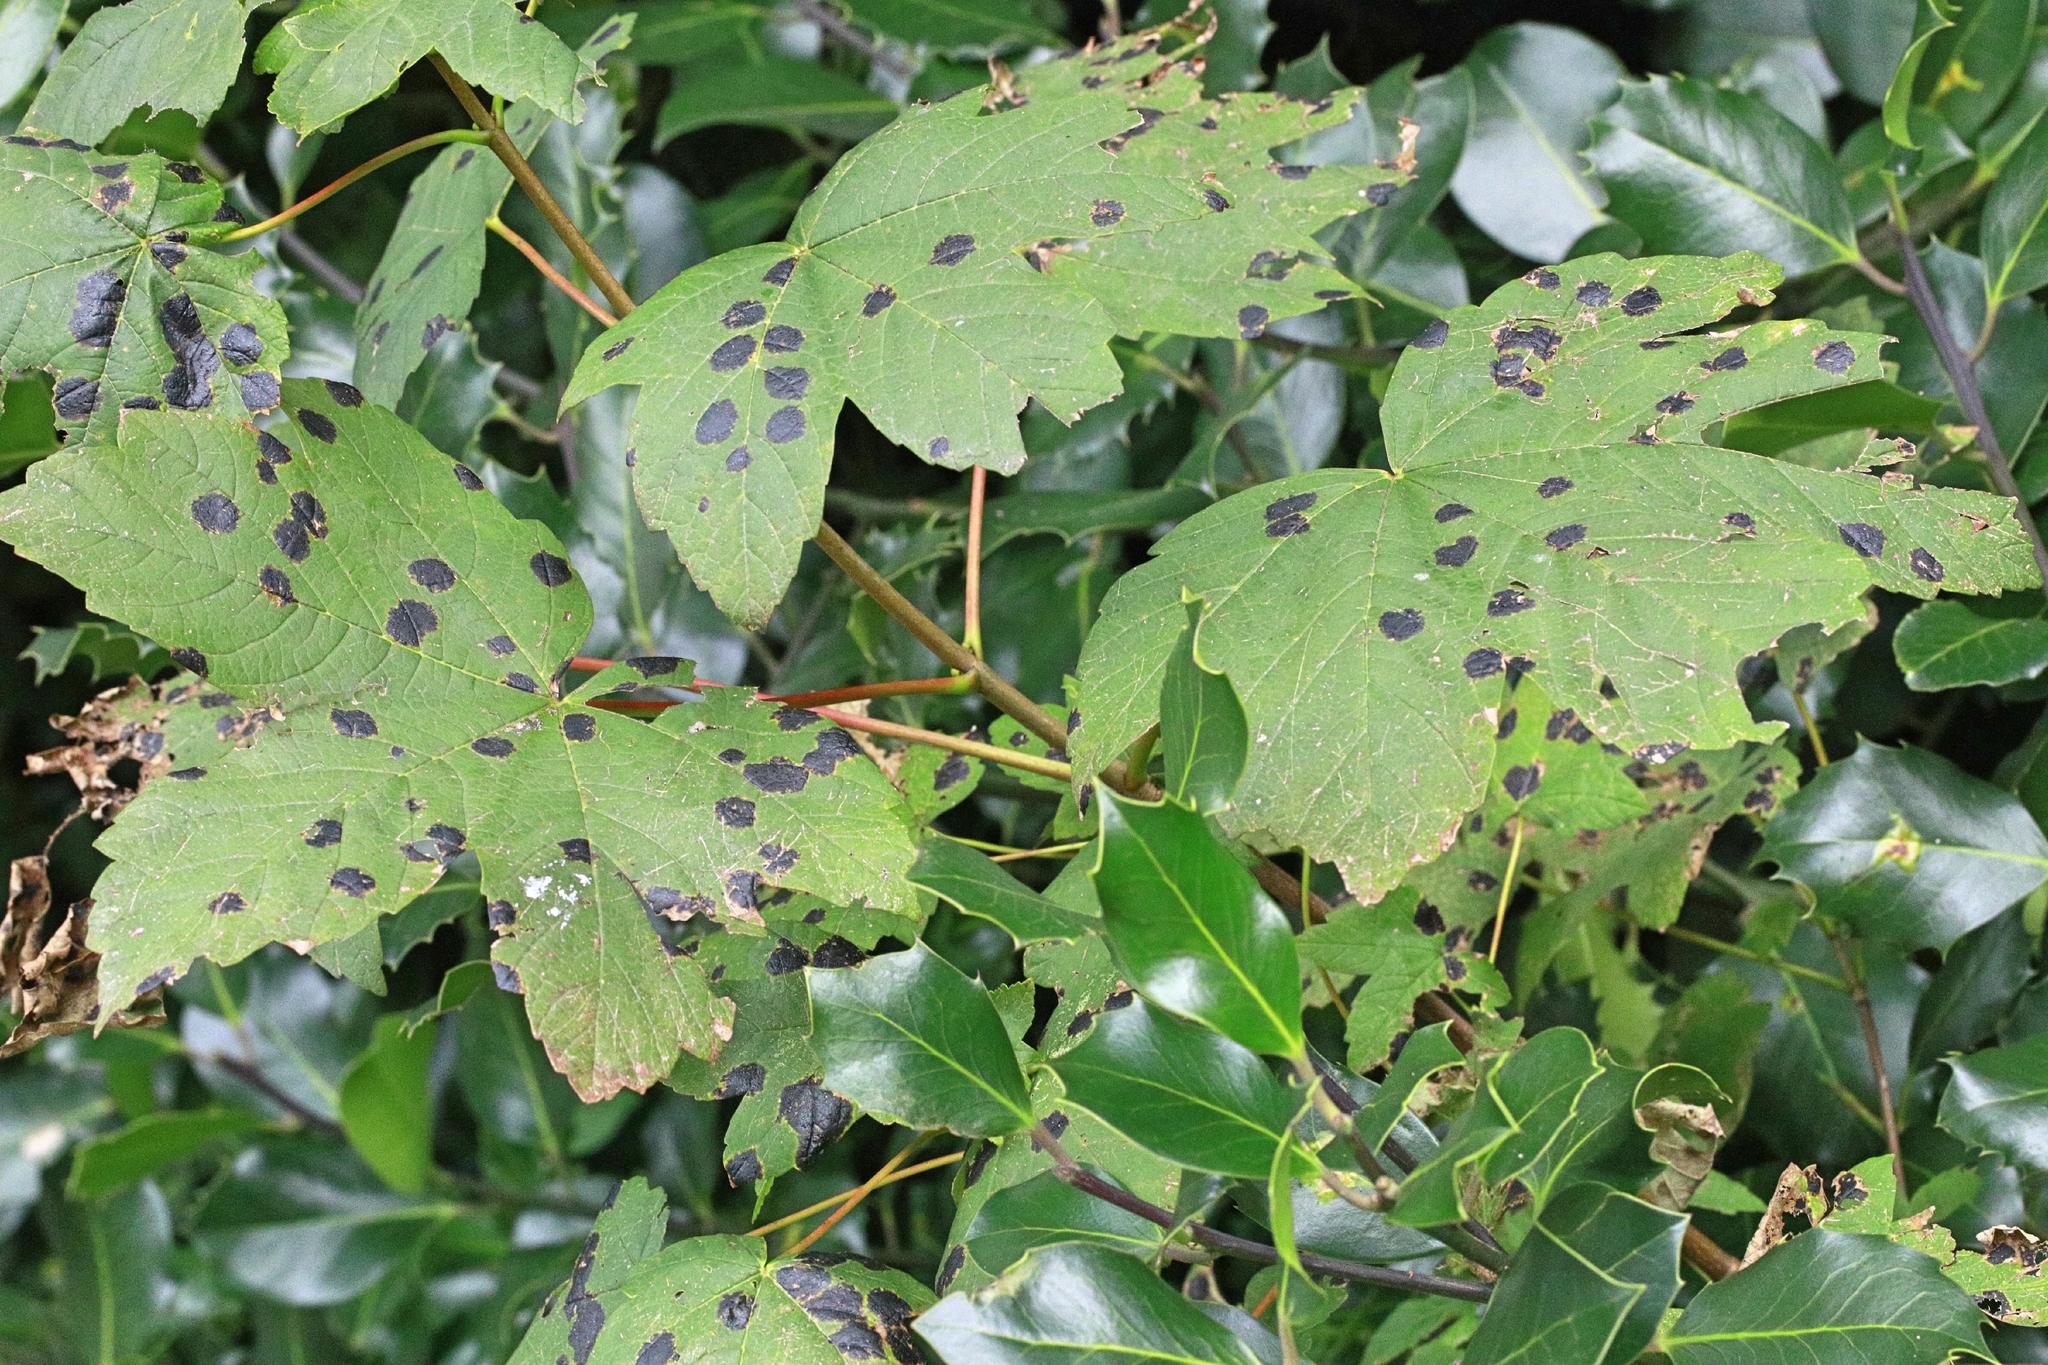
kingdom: Fungi
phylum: Ascomycota
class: Leotiomycetes
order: Rhytismatales
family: Rhytismataceae
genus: Rhytisma
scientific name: Rhytisma acerinum
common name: European tar spot
